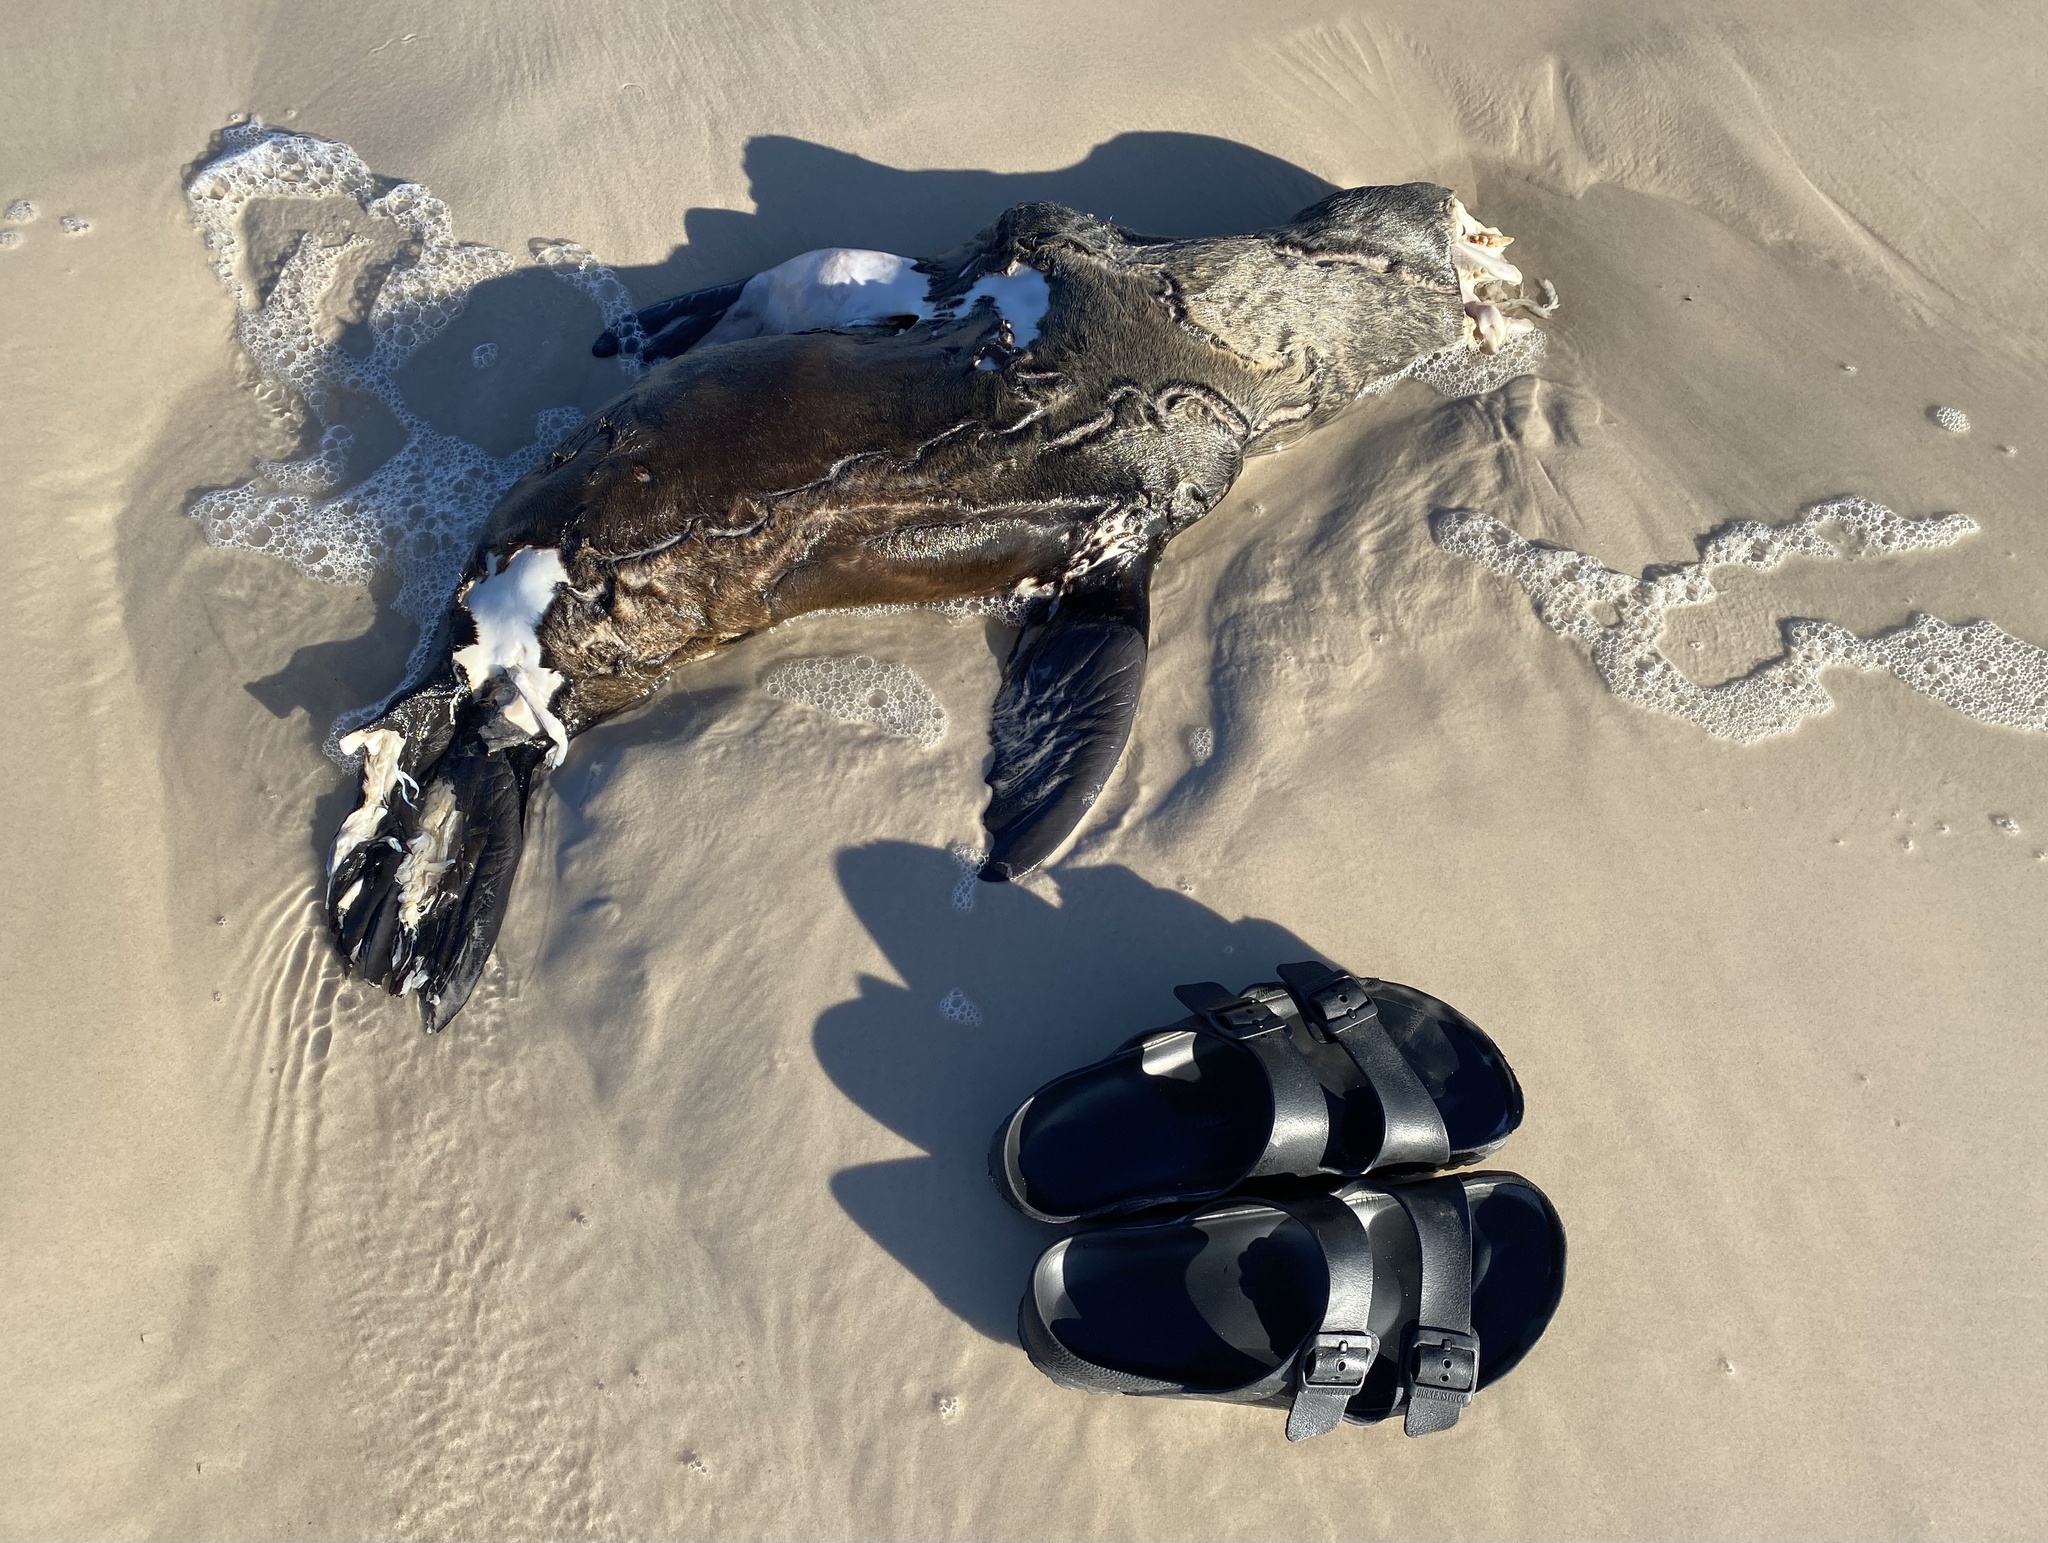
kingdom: Animalia
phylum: Chordata
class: Mammalia
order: Carnivora
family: Otariidae
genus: Arctocephalus
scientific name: Arctocephalus pusillus
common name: Brown fur seal
